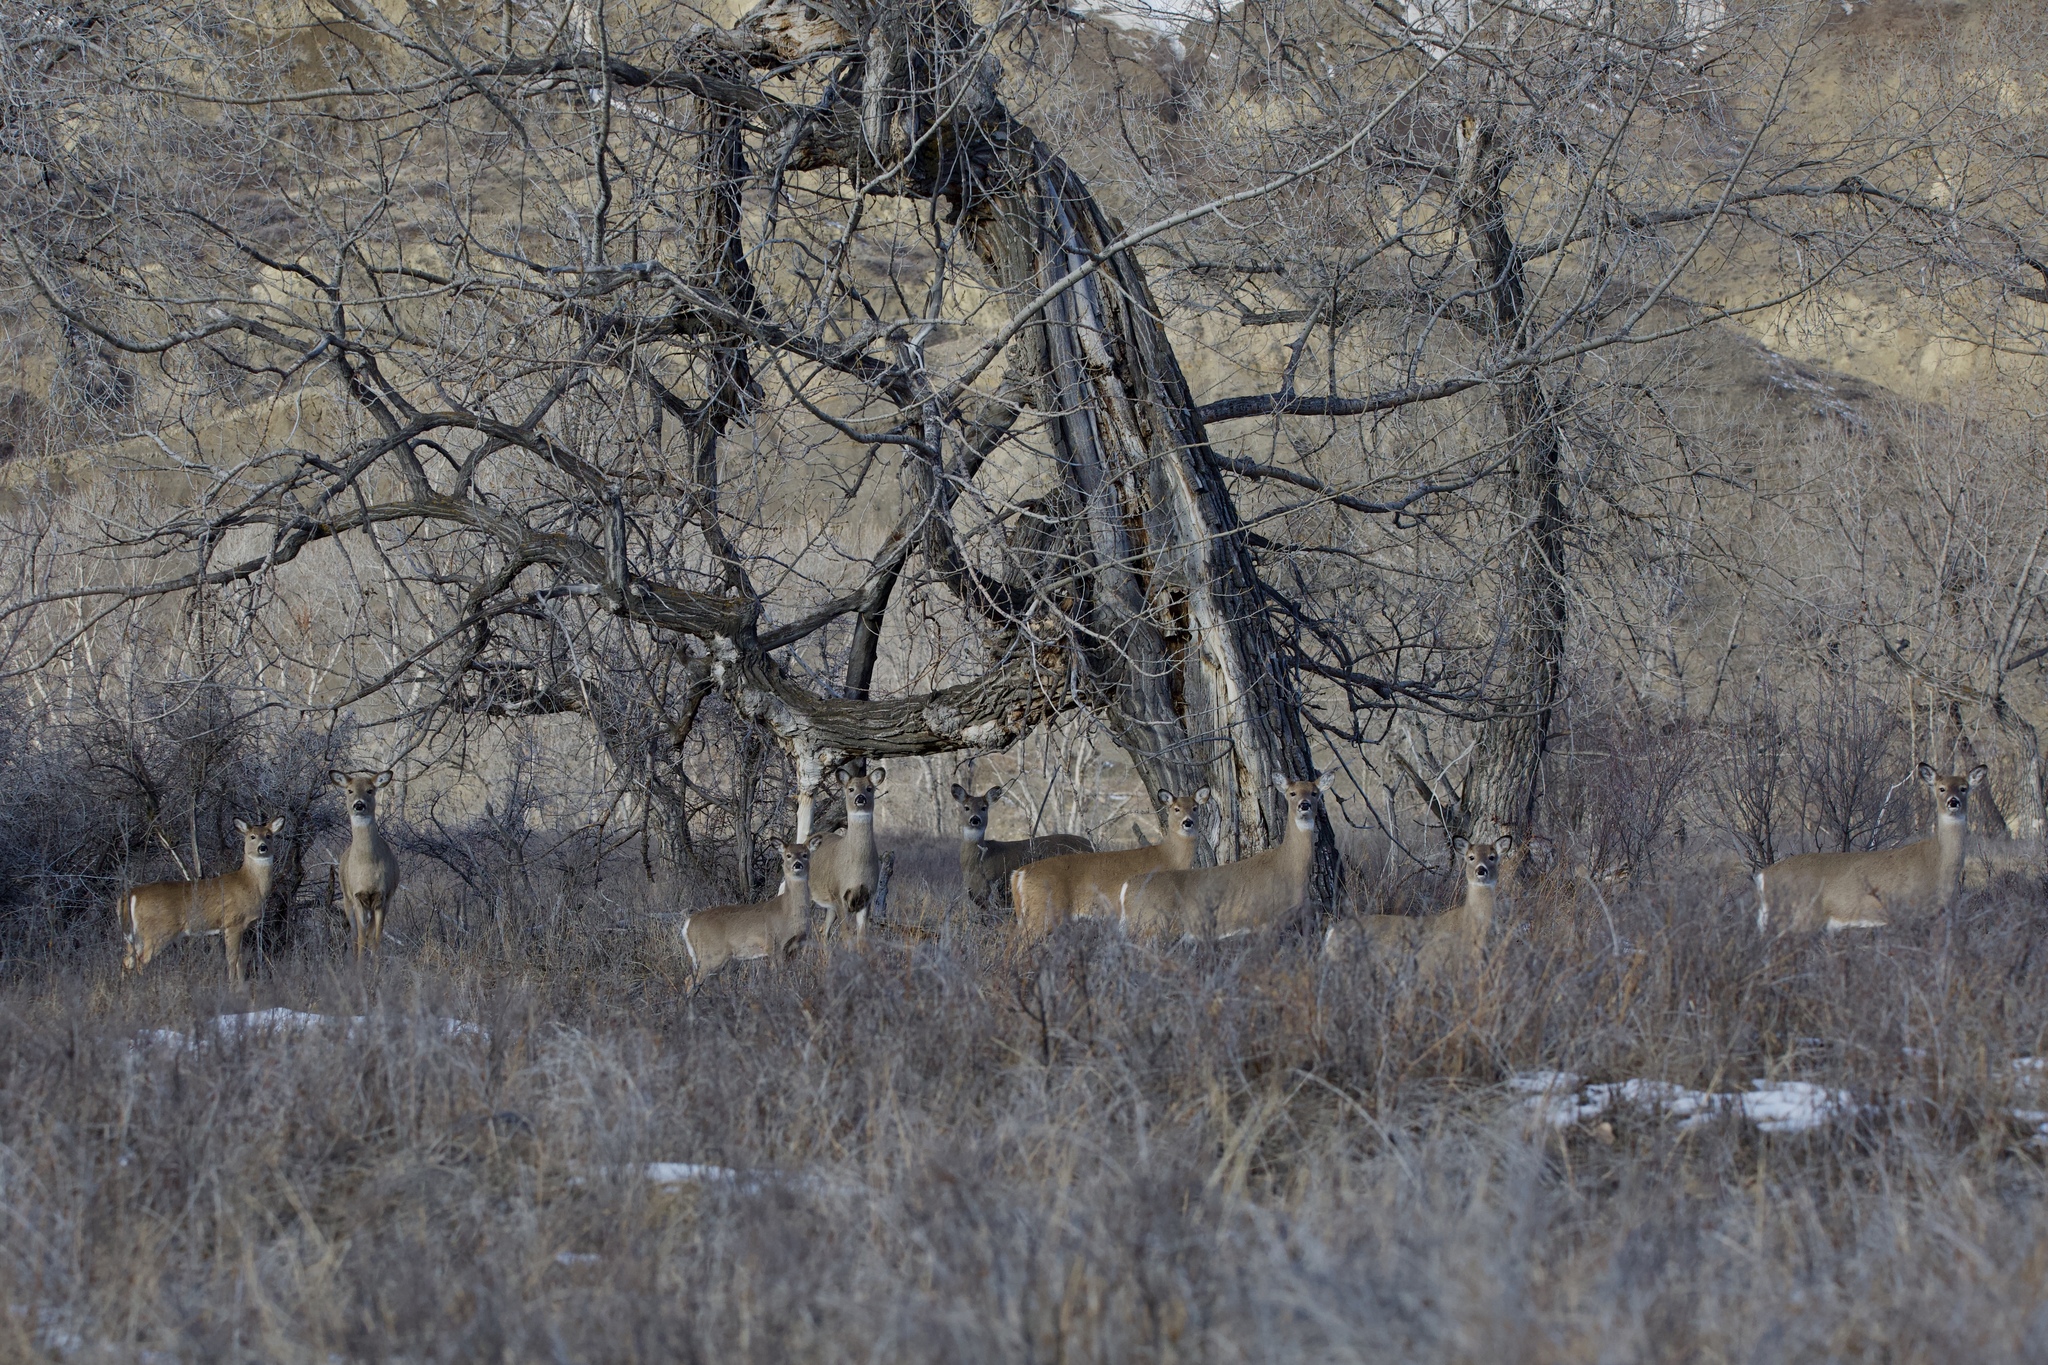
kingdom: Animalia
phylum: Chordata
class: Mammalia
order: Artiodactyla
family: Cervidae
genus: Odocoileus
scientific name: Odocoileus virginianus
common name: White-tailed deer
